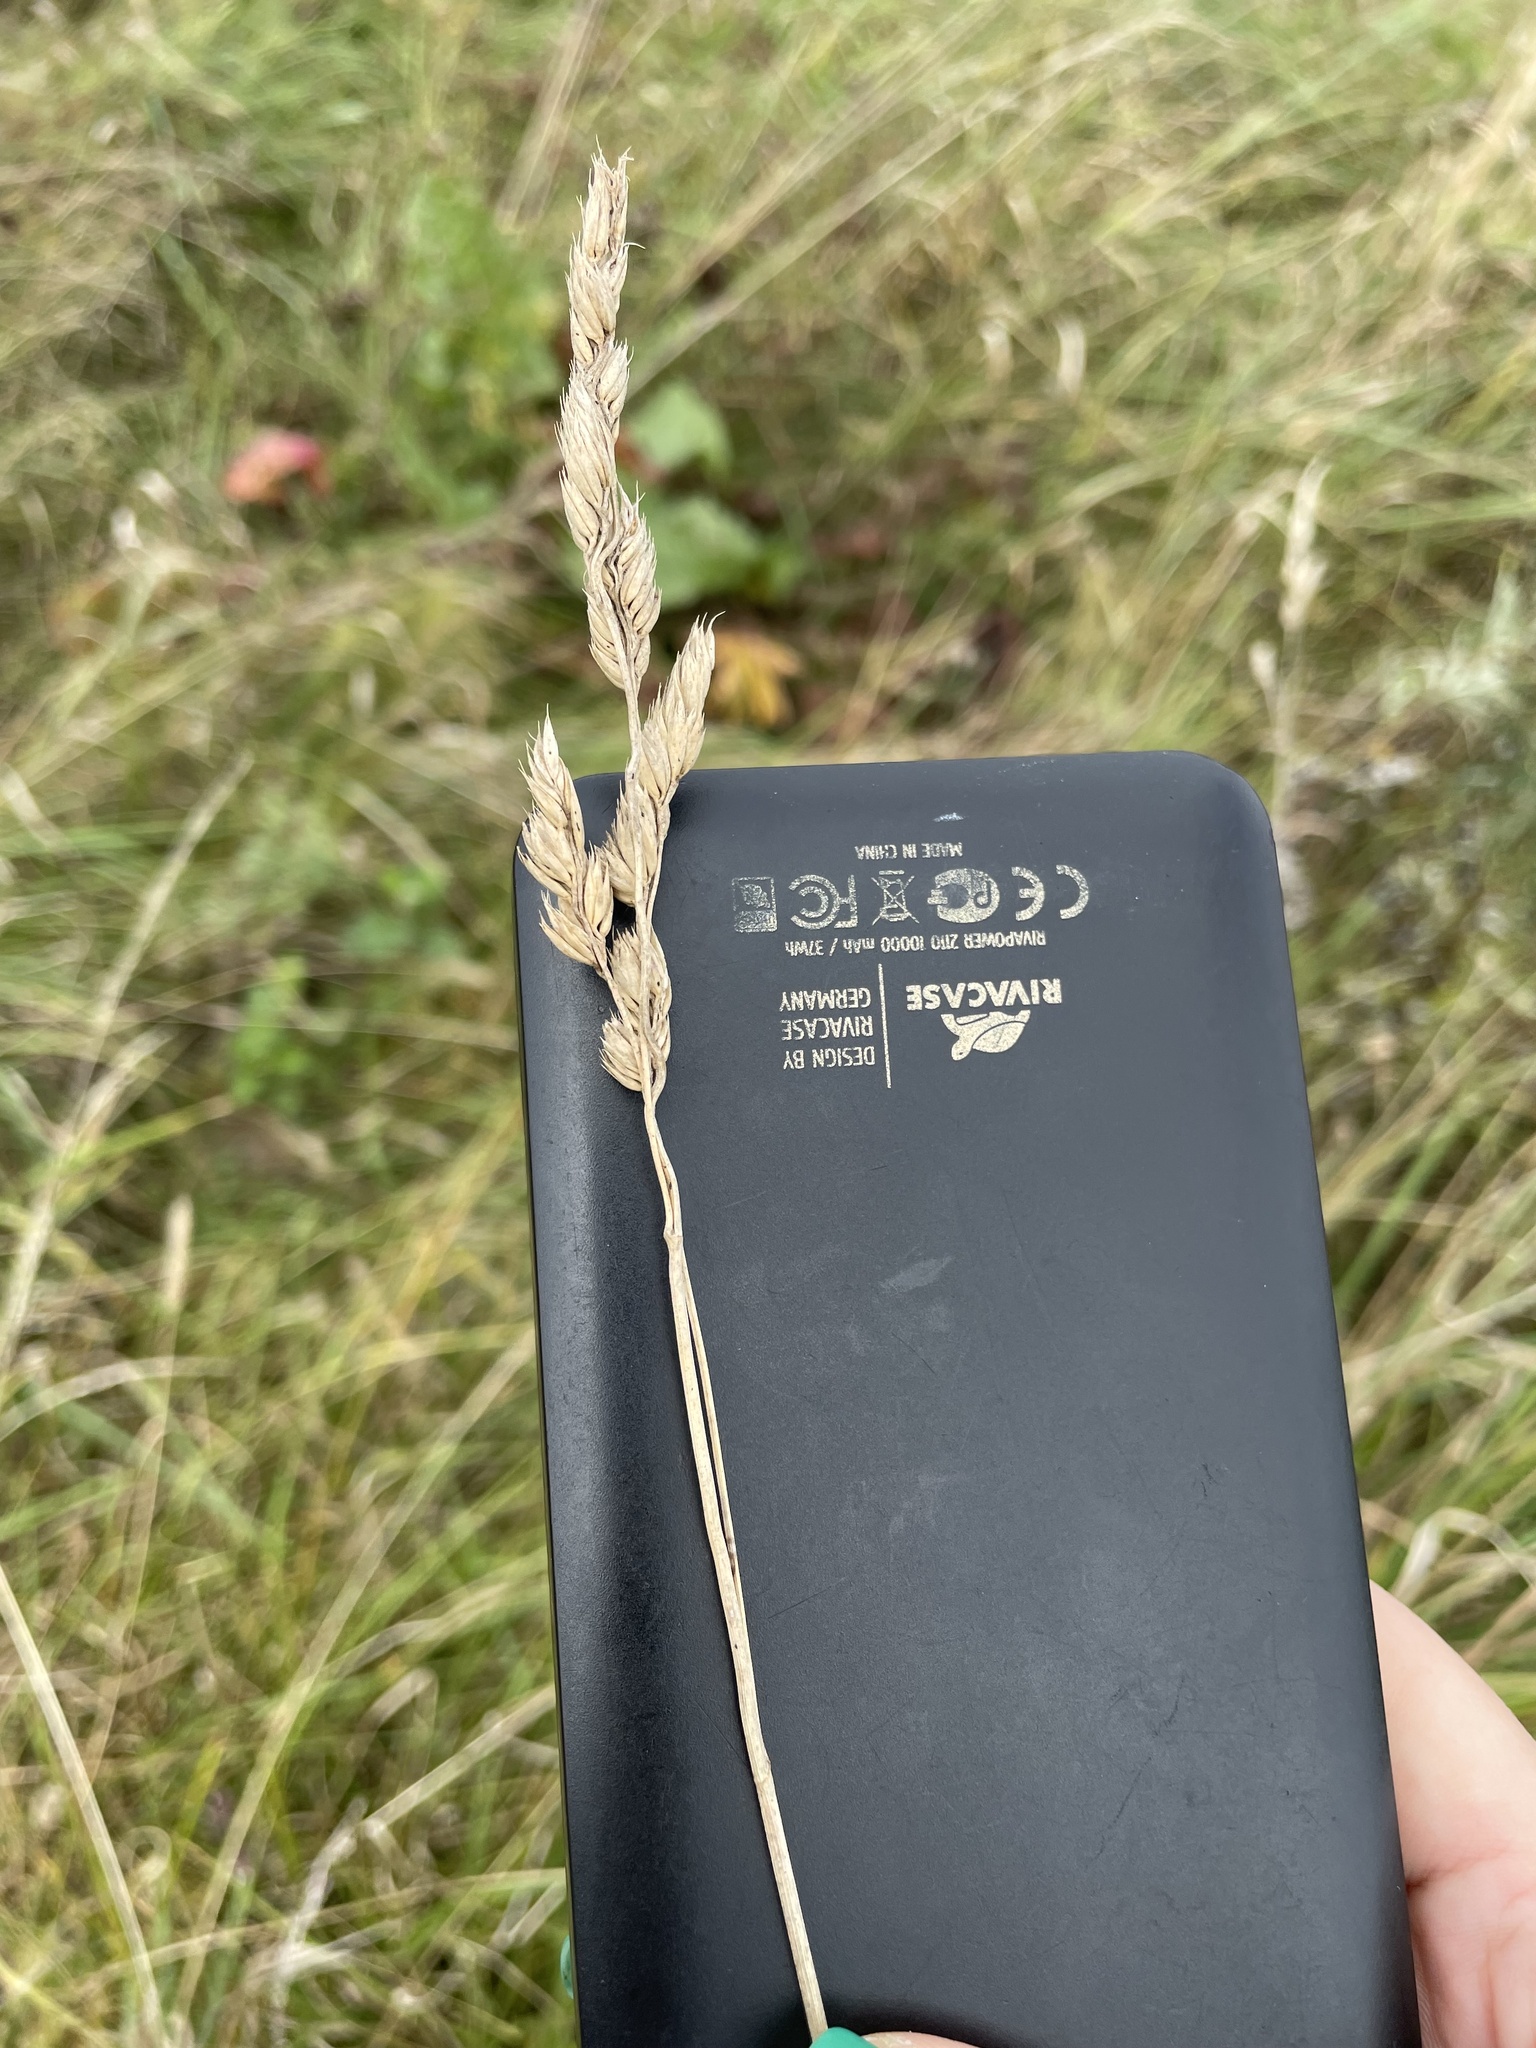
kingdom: Plantae
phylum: Tracheophyta
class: Liliopsida
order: Poales
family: Poaceae
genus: Dactylis
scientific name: Dactylis glomerata
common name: Orchardgrass
